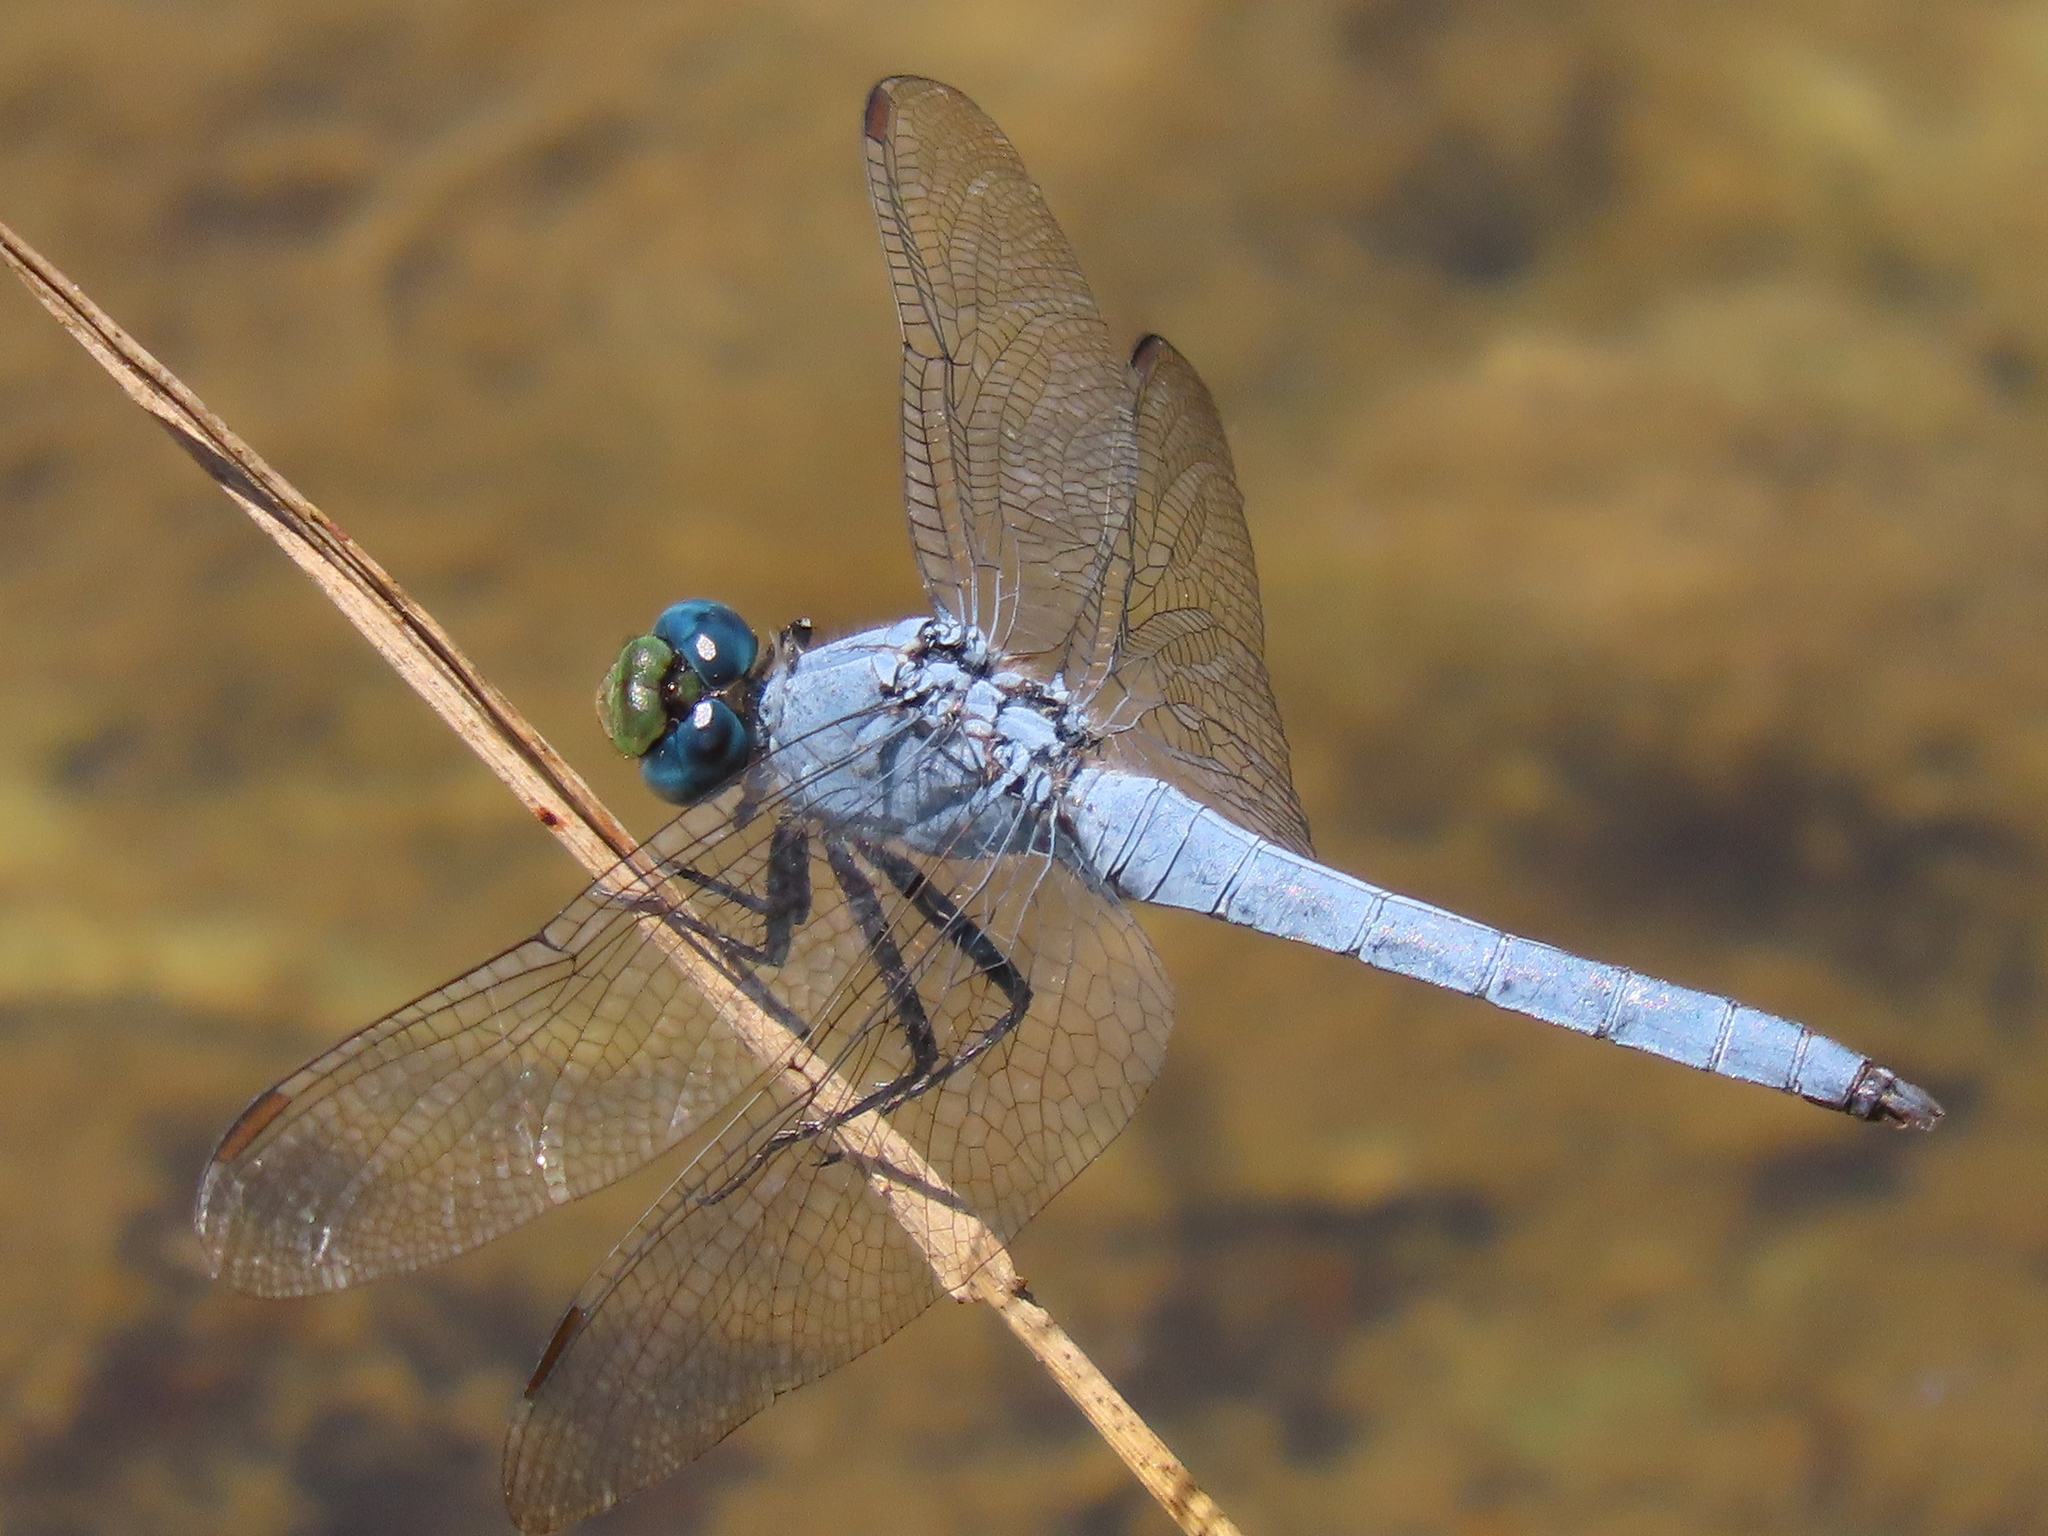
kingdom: Animalia
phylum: Arthropoda
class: Insecta
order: Odonata
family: Libellulidae
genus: Erythemis
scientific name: Erythemis collocata
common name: Western pondhawk
